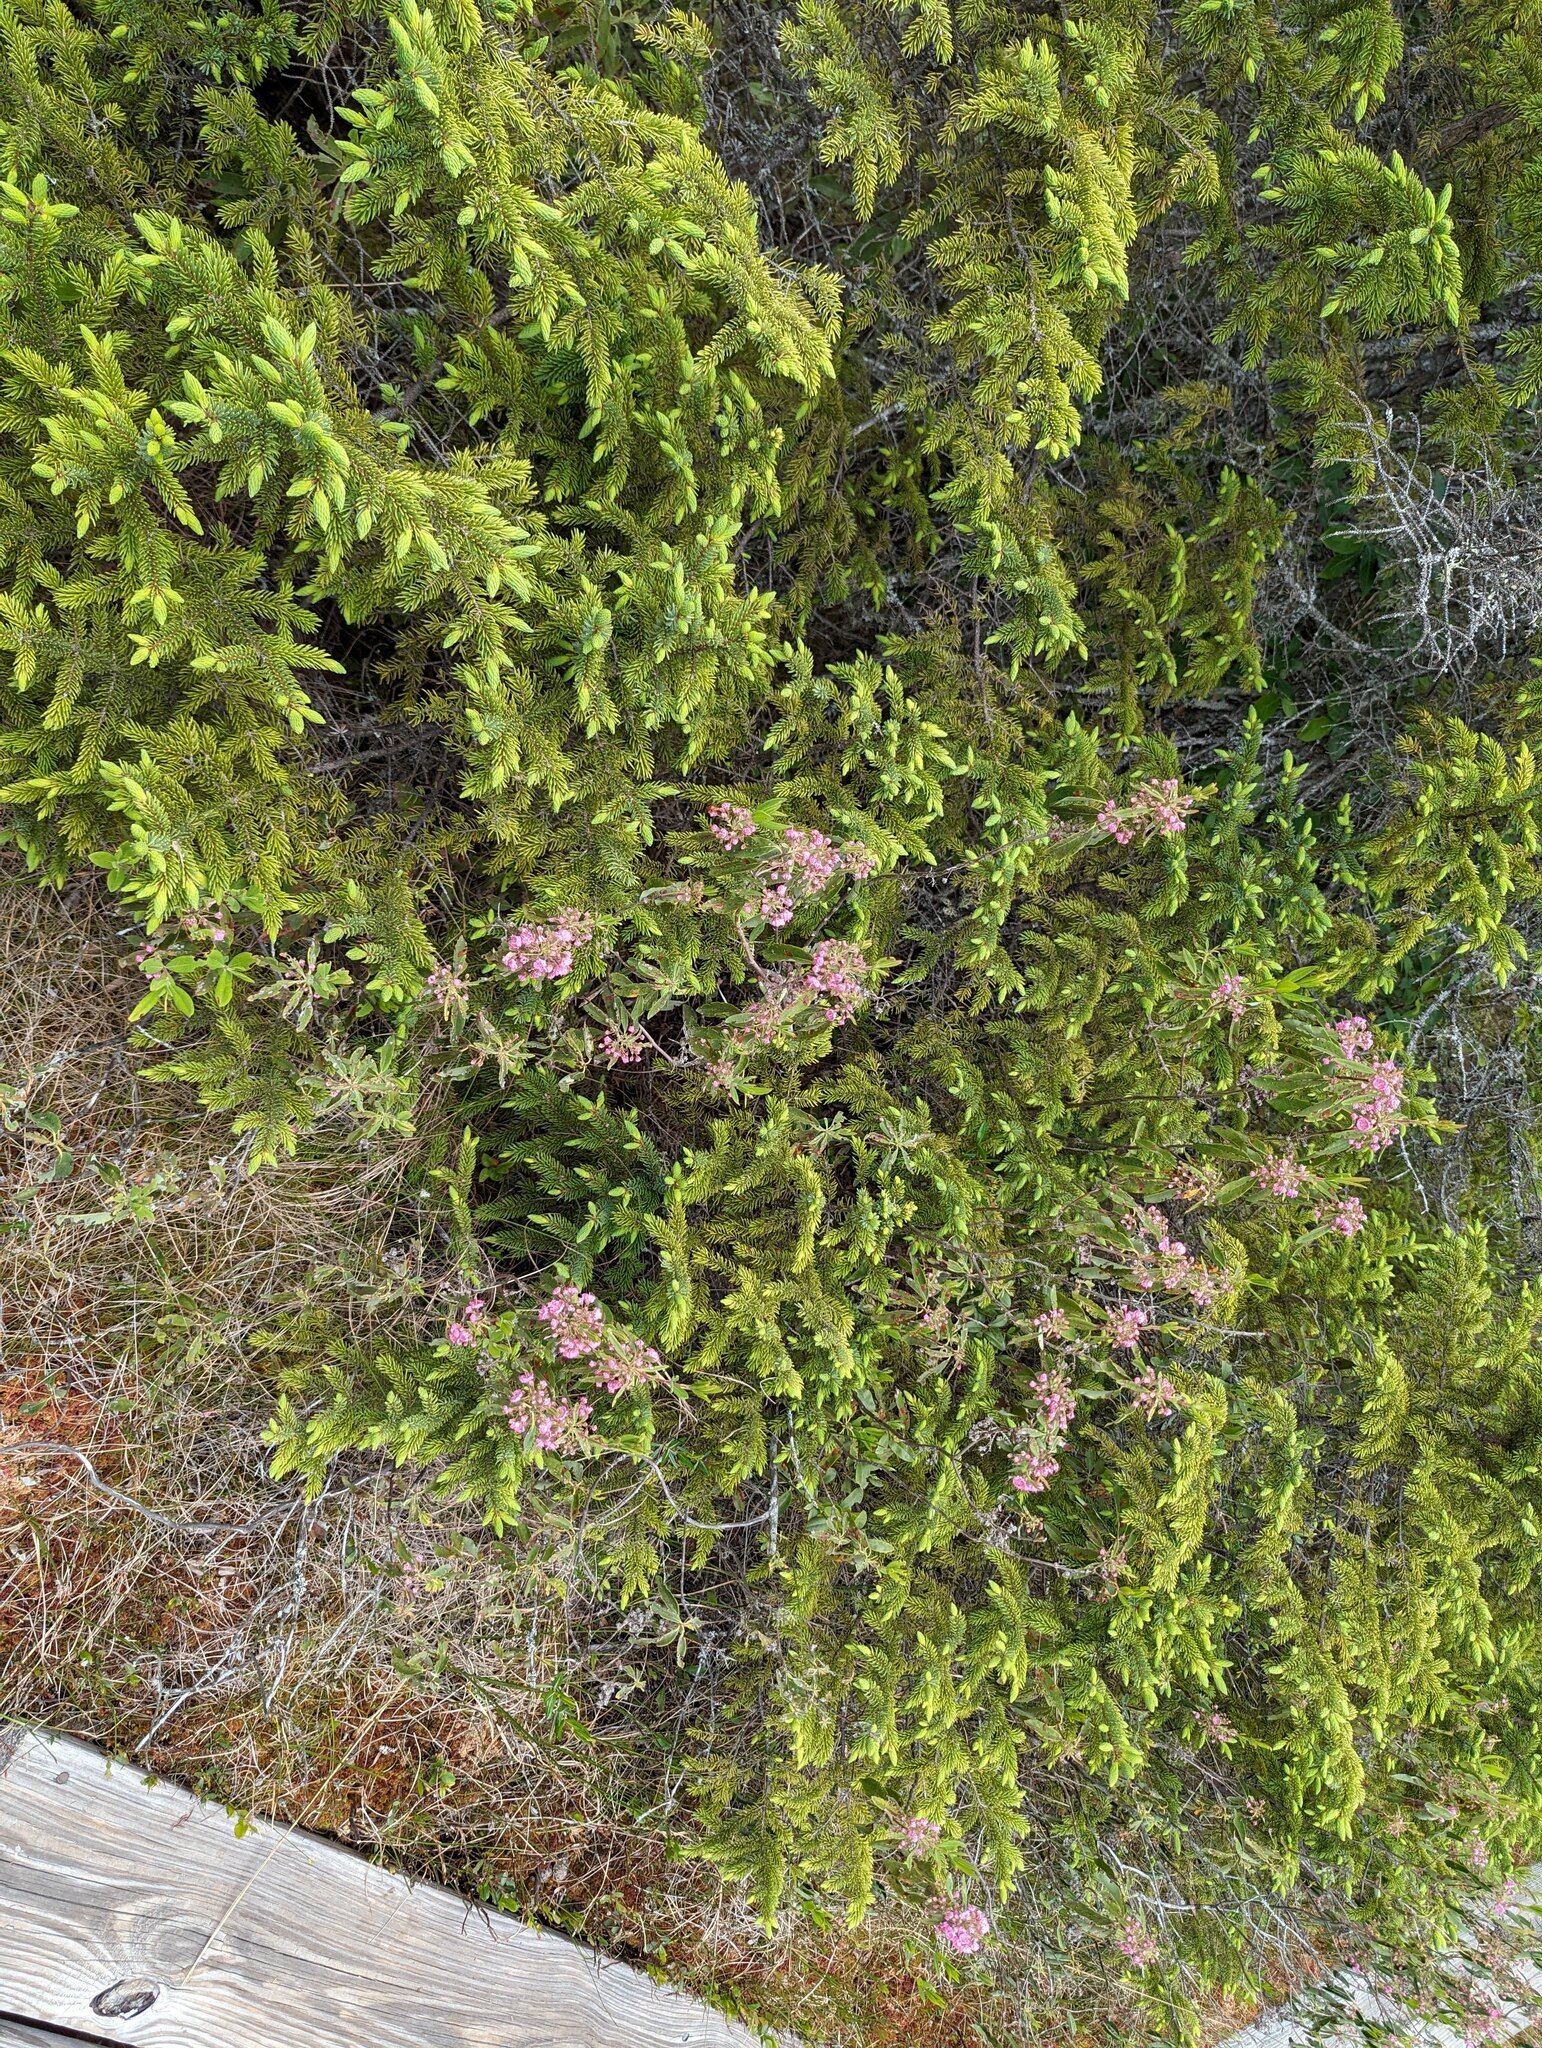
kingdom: Plantae
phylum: Tracheophyta
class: Magnoliopsida
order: Ericales
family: Ericaceae
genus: Kalmia
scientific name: Kalmia angustifolia
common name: Sheep-laurel
